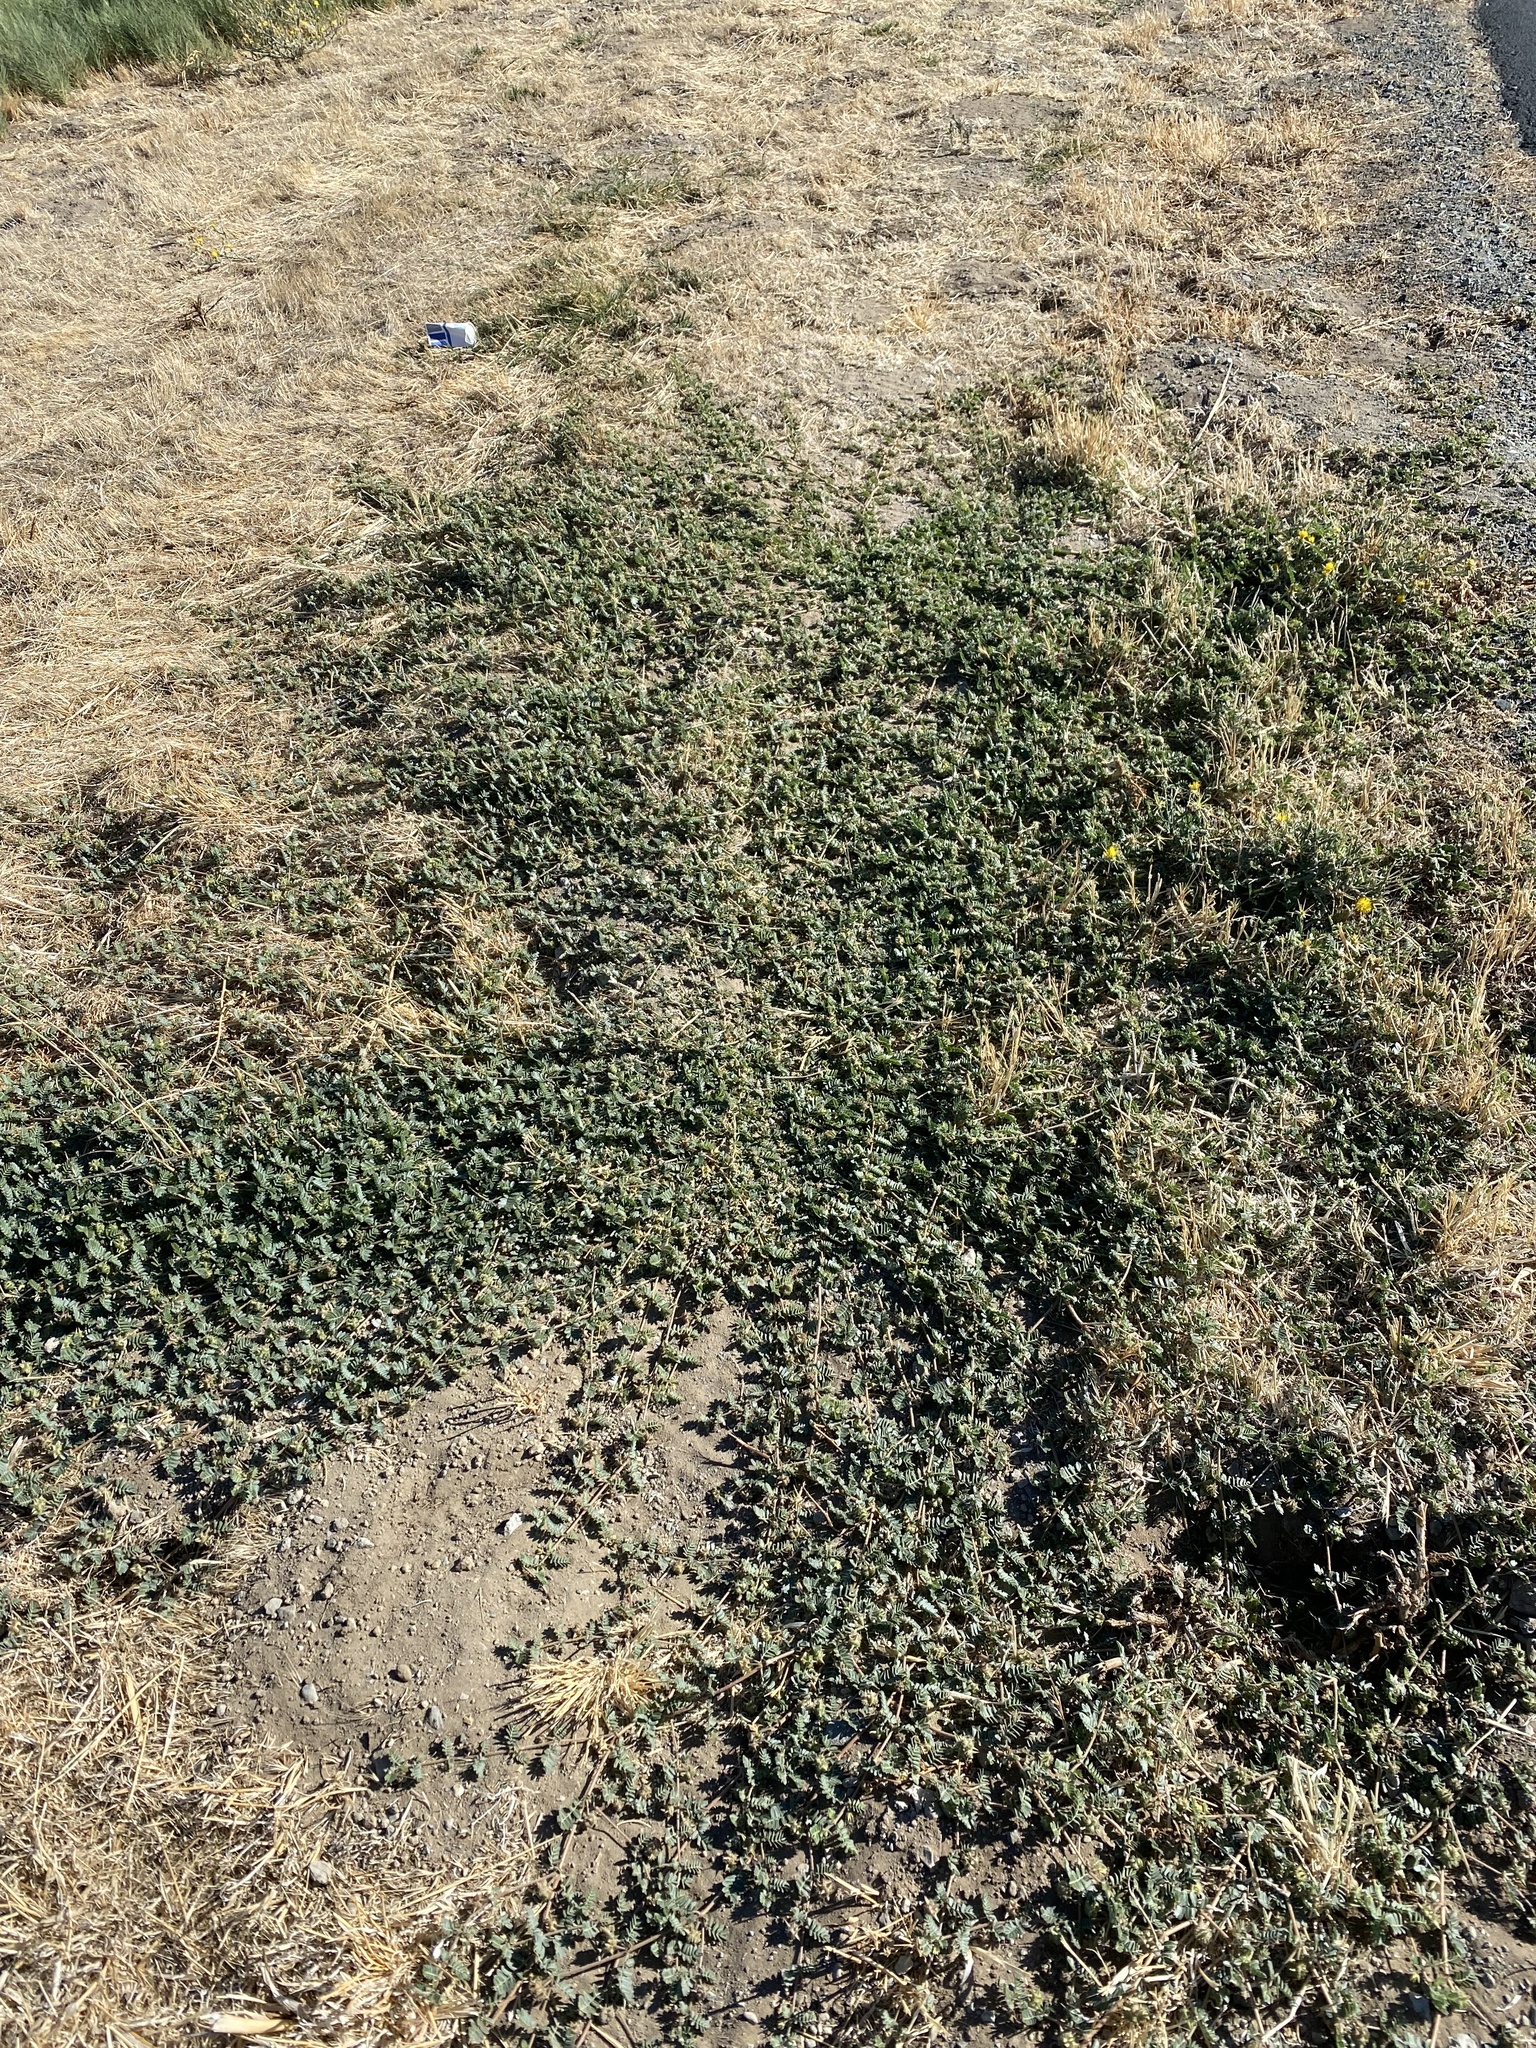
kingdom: Plantae
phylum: Tracheophyta
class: Magnoliopsida
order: Zygophyllales
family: Zygophyllaceae
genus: Tribulus
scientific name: Tribulus terrestris
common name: Puncturevine
